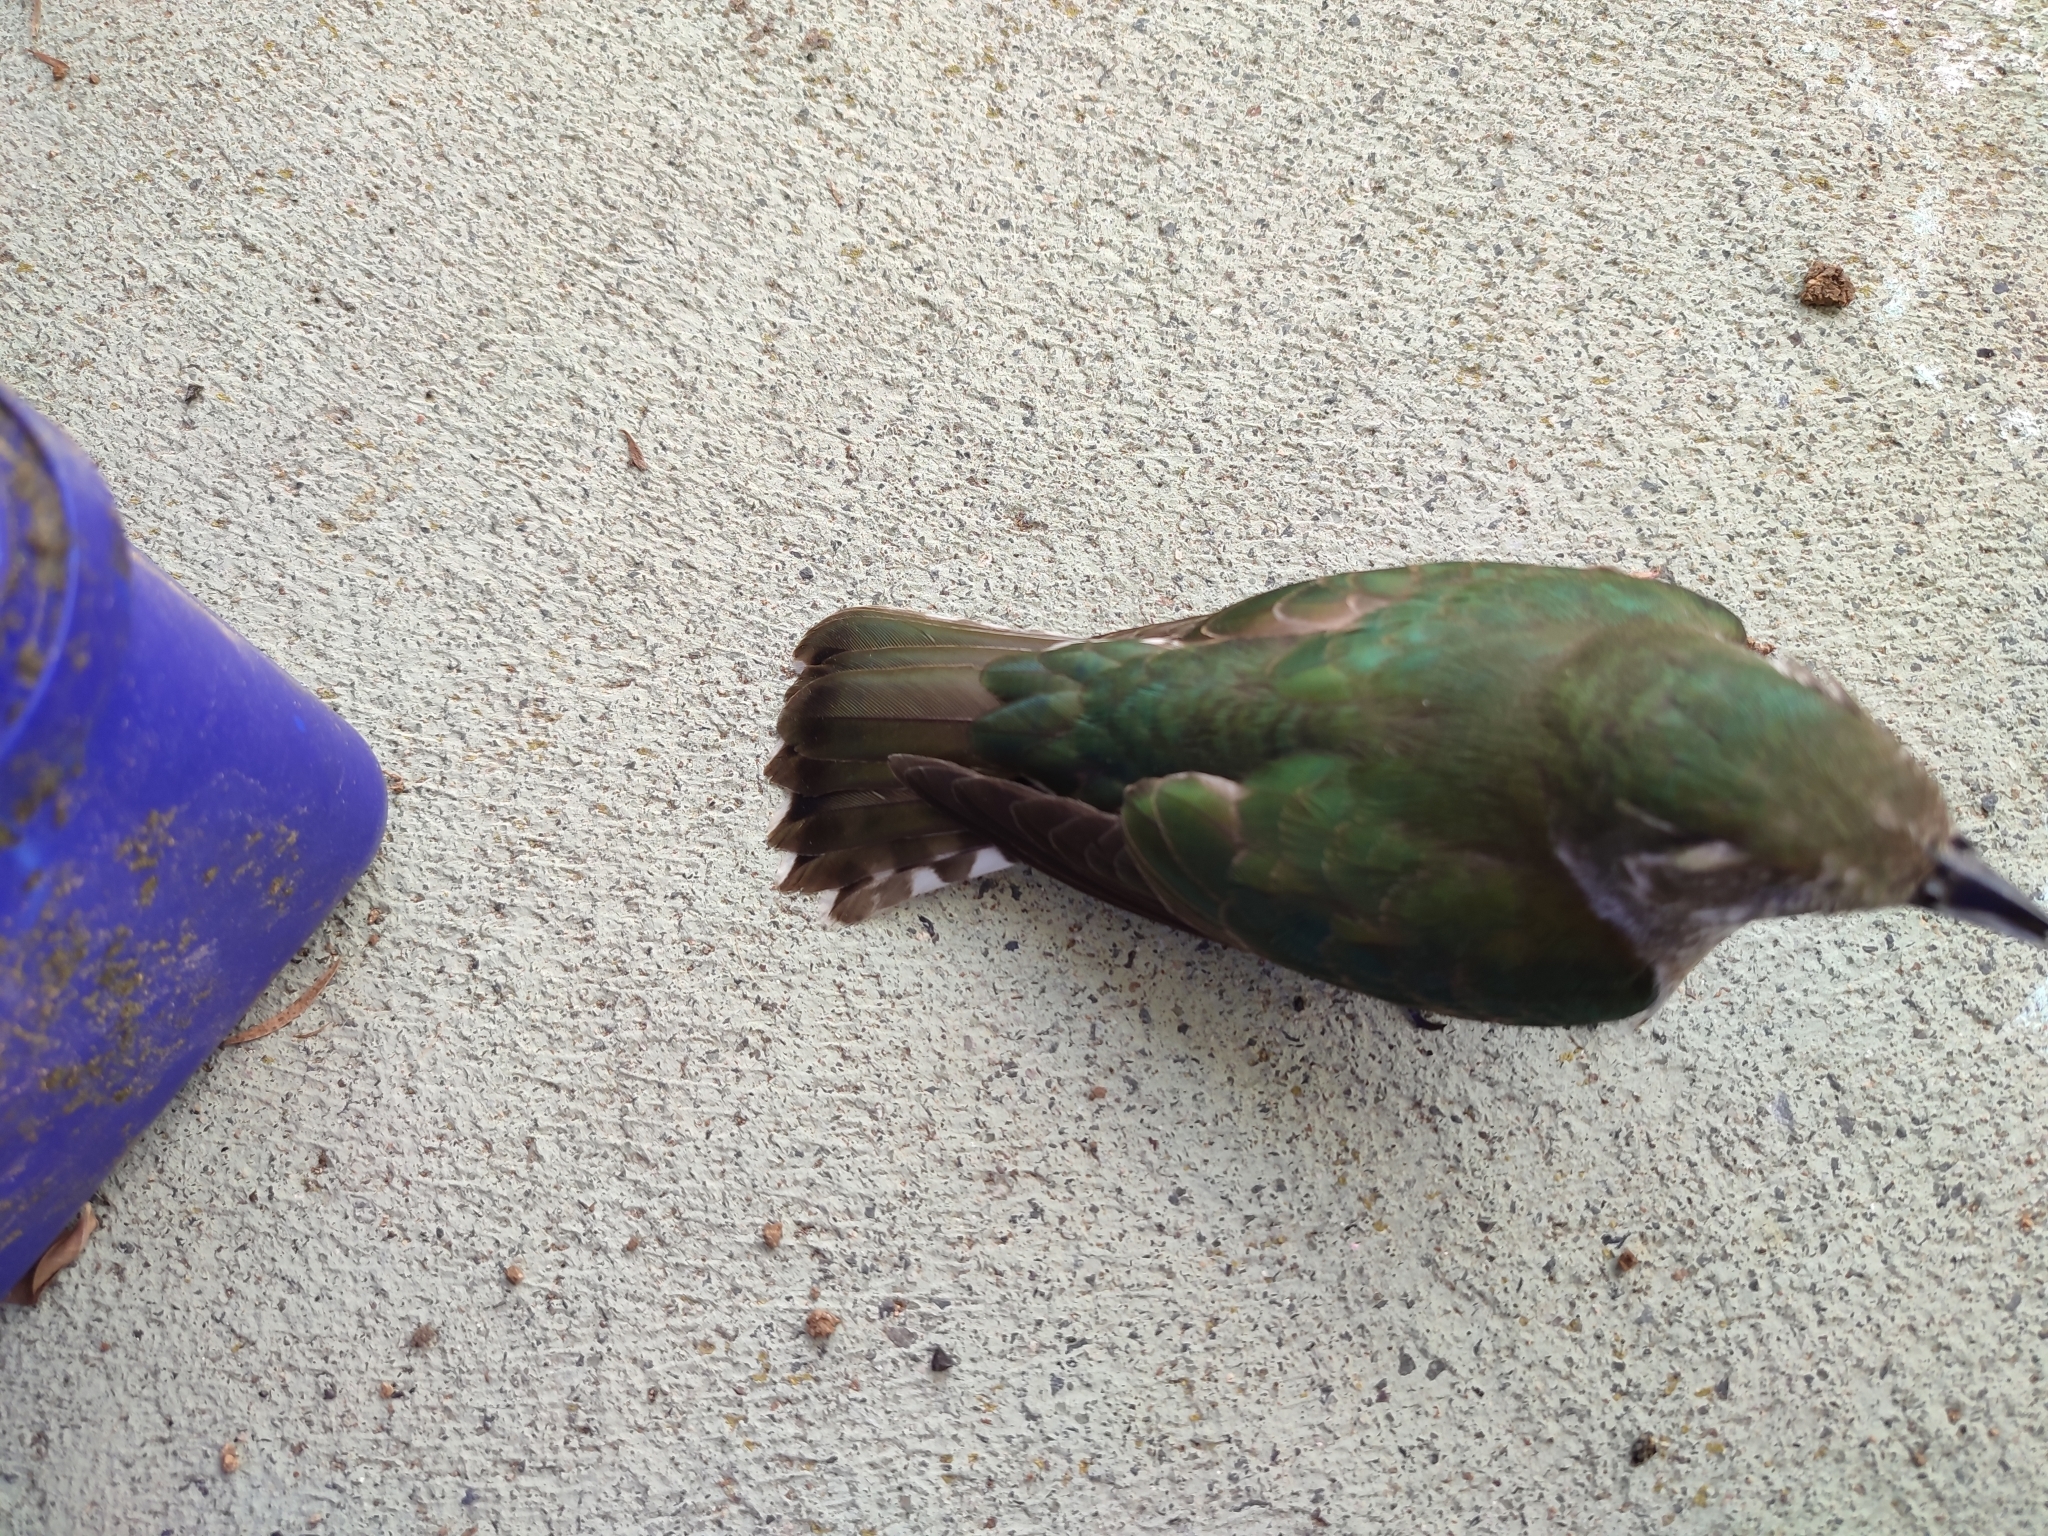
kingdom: Animalia
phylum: Chordata
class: Aves
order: Cuculiformes
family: Cuculidae
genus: Chrysococcyx
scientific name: Chrysococcyx lucidus
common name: Shining bronze cuckoo
